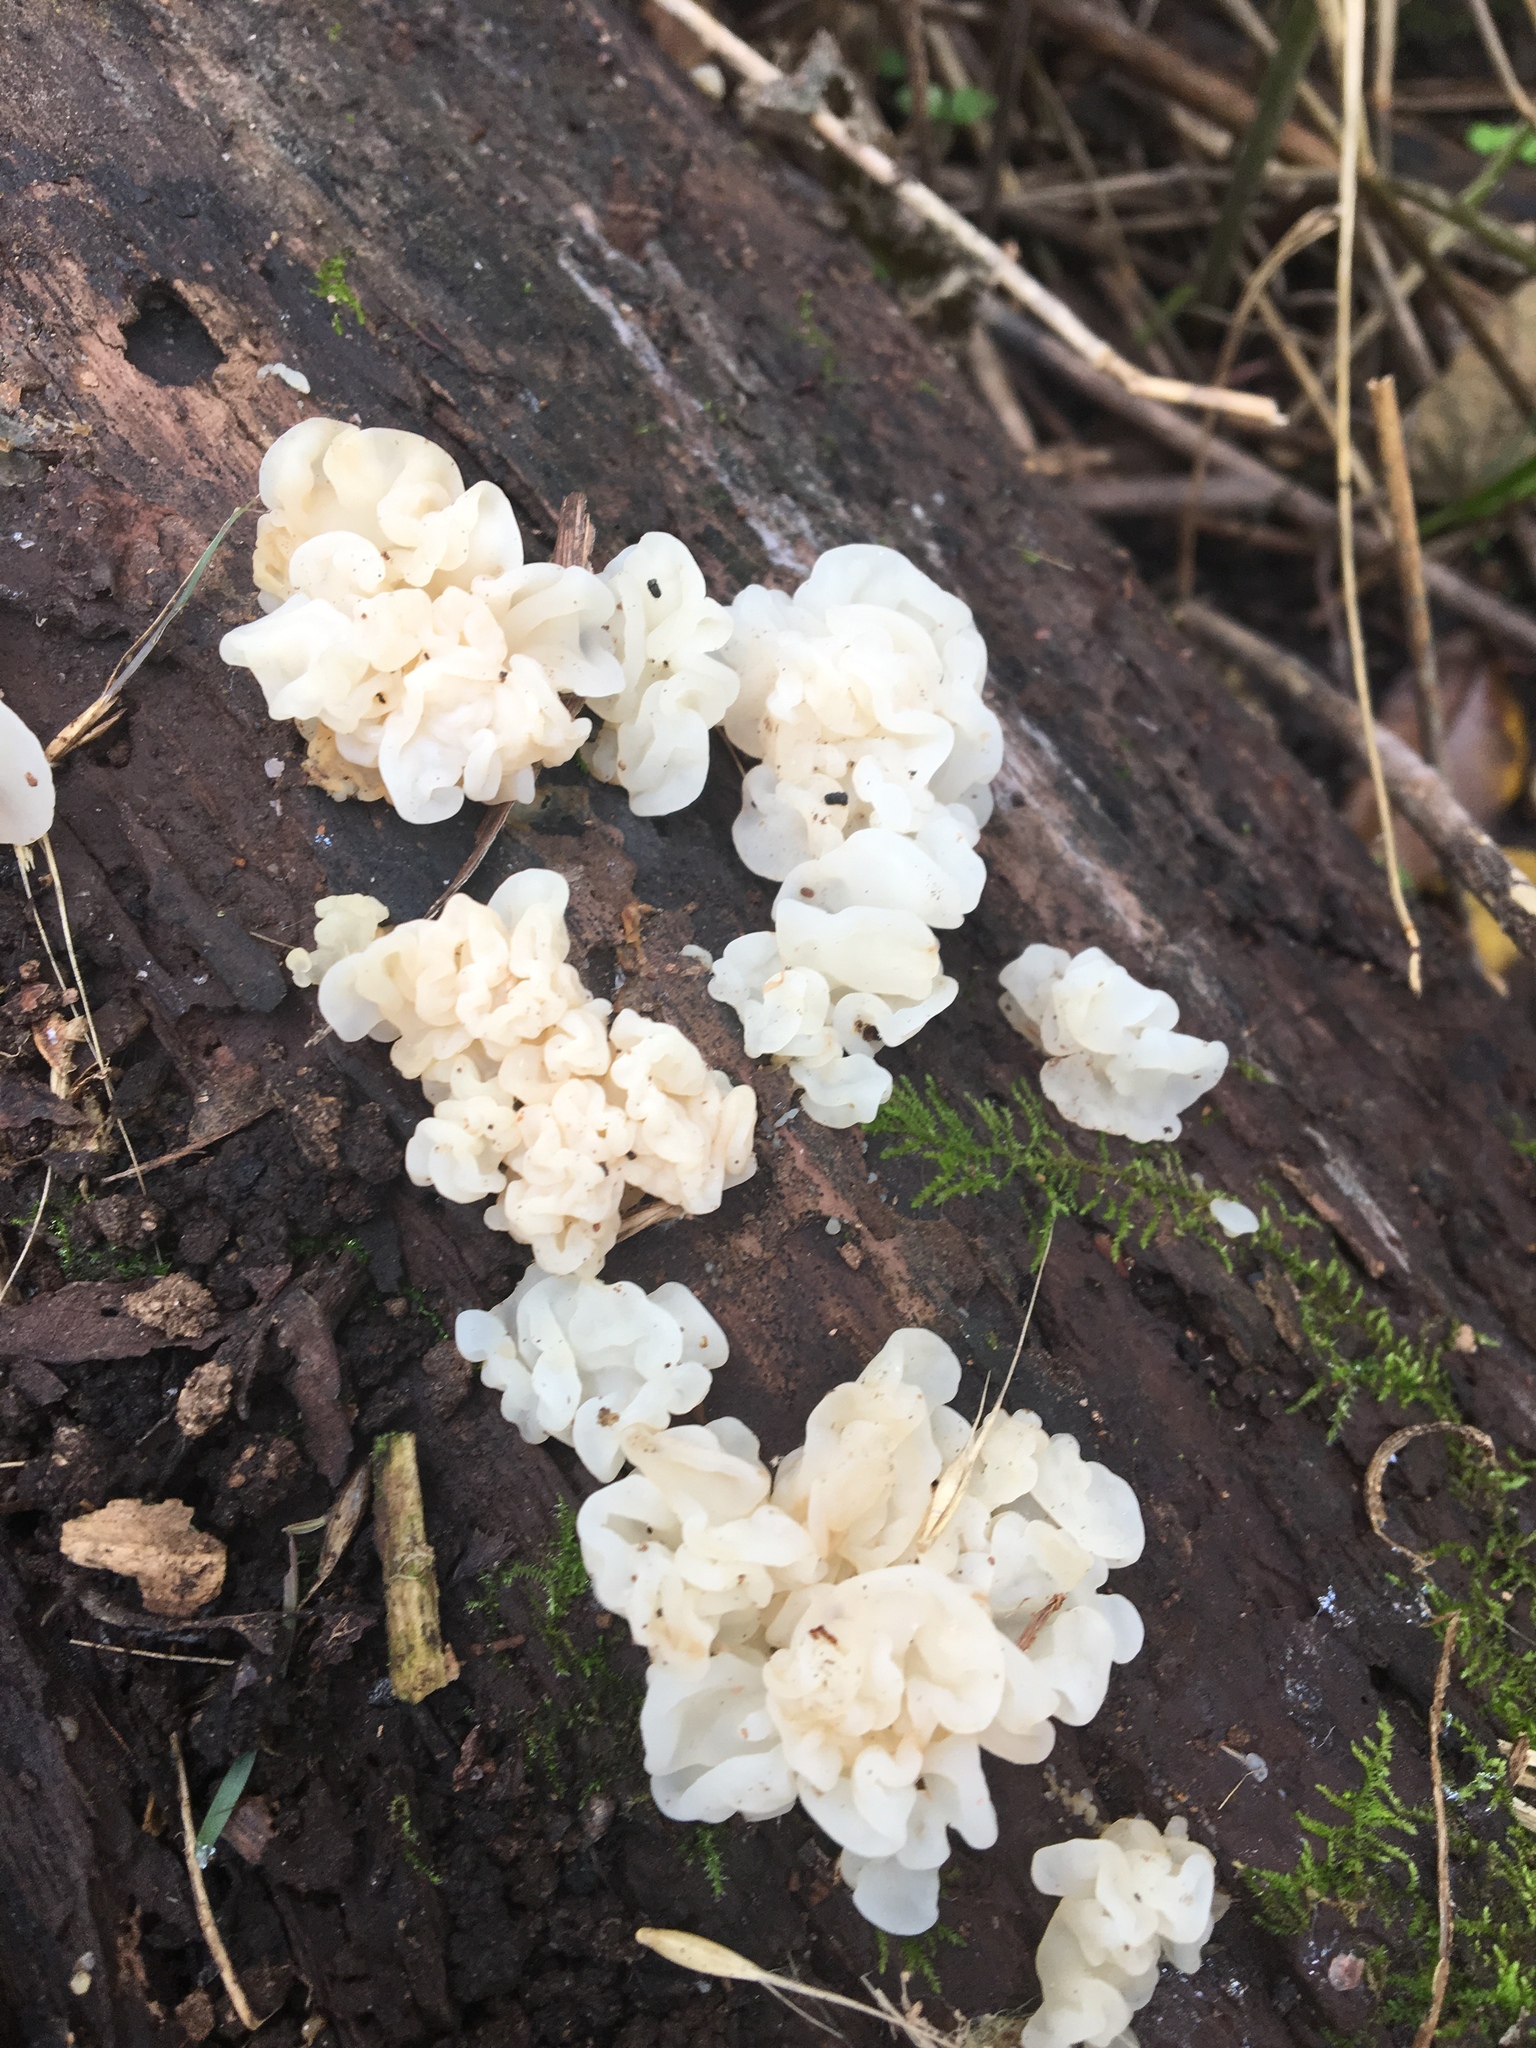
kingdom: Fungi
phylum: Basidiomycota
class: Agaricomycetes
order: Auriculariales
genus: Ductifera
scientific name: Ductifera pululahuana
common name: White jelly fungus
